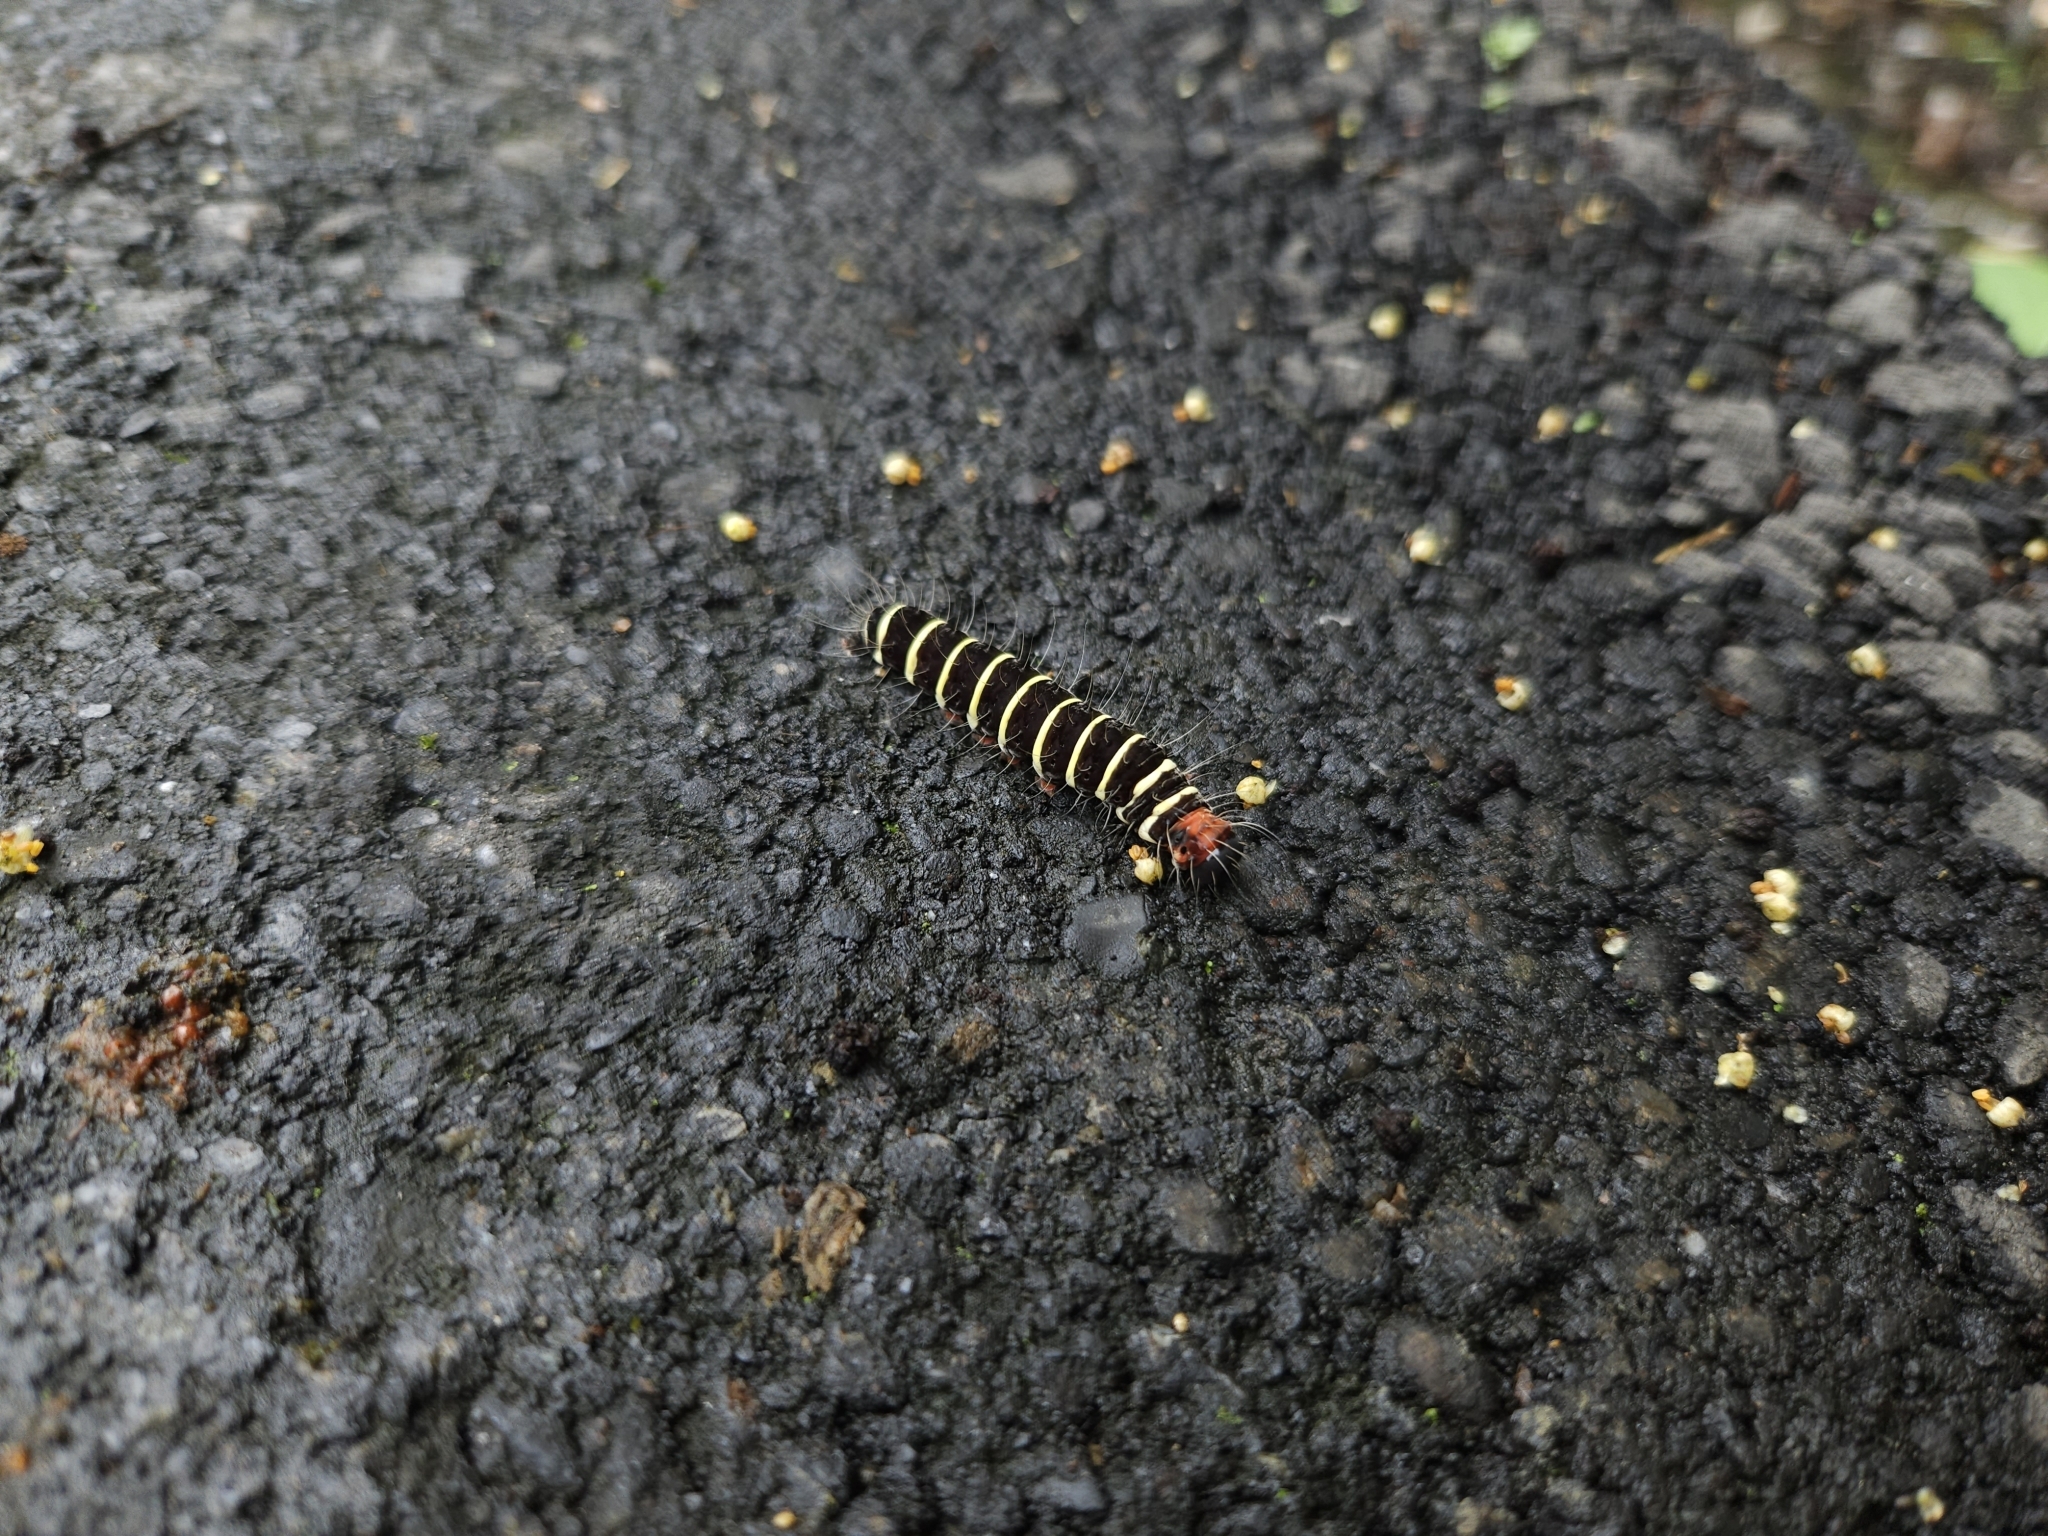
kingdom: Animalia
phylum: Arthropoda
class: Insecta
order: Lepidoptera
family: Erebidae
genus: Asota
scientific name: Asota plana
